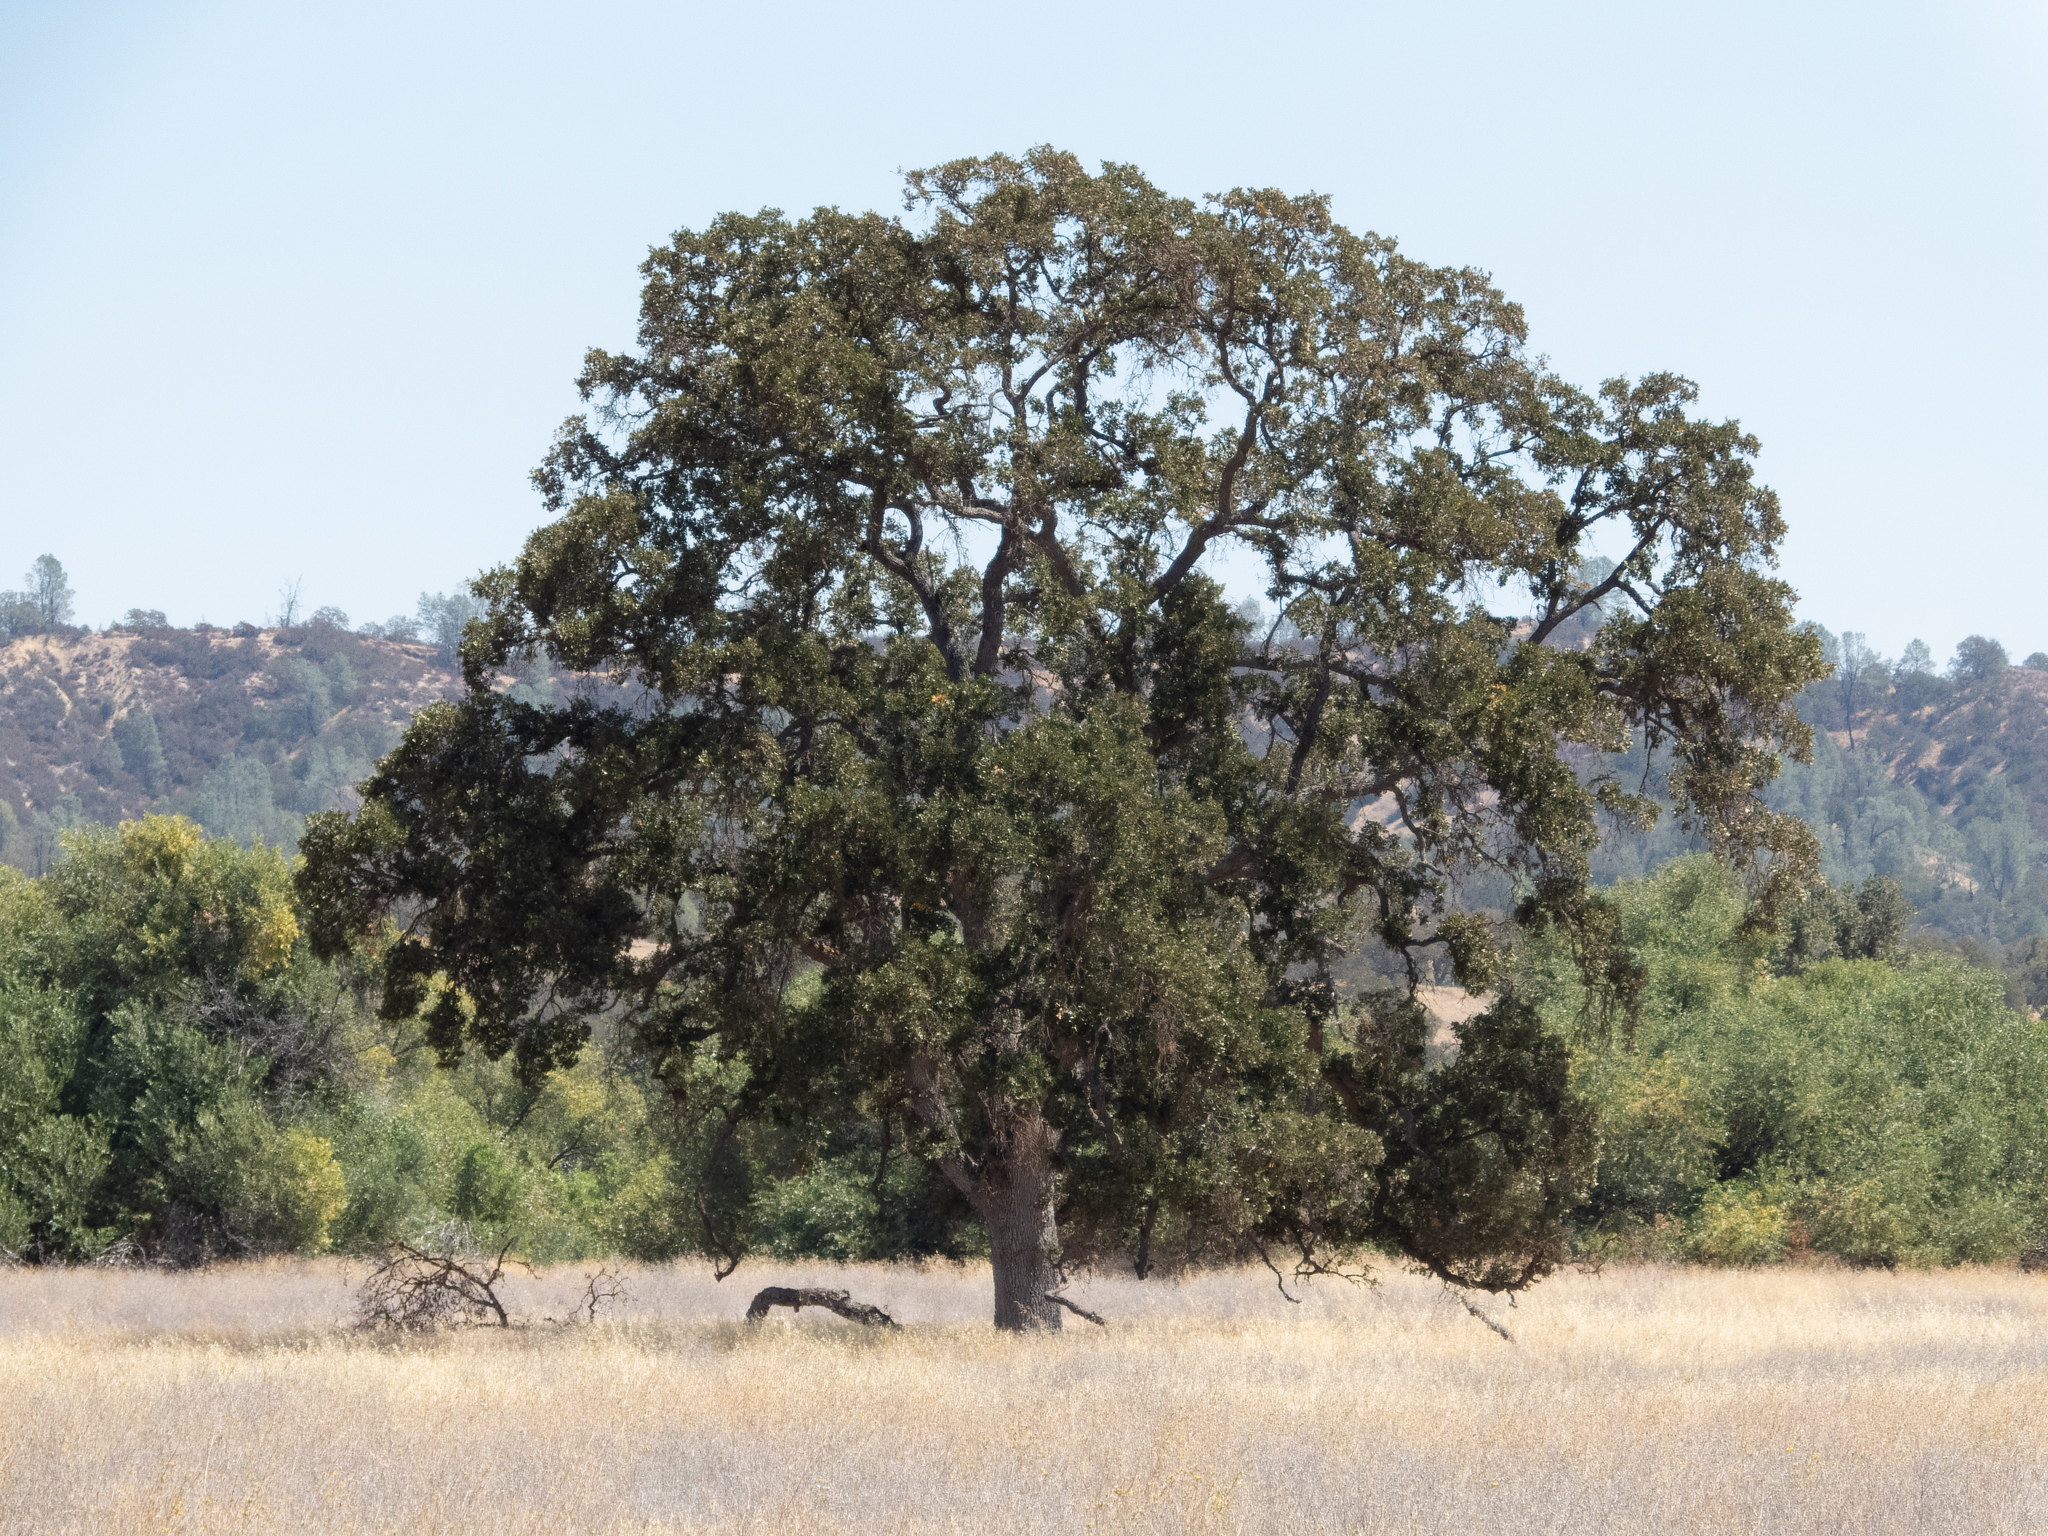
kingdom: Plantae
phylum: Tracheophyta
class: Magnoliopsida
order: Fagales
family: Fagaceae
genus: Quercus
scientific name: Quercus lobata
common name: Valley oak
